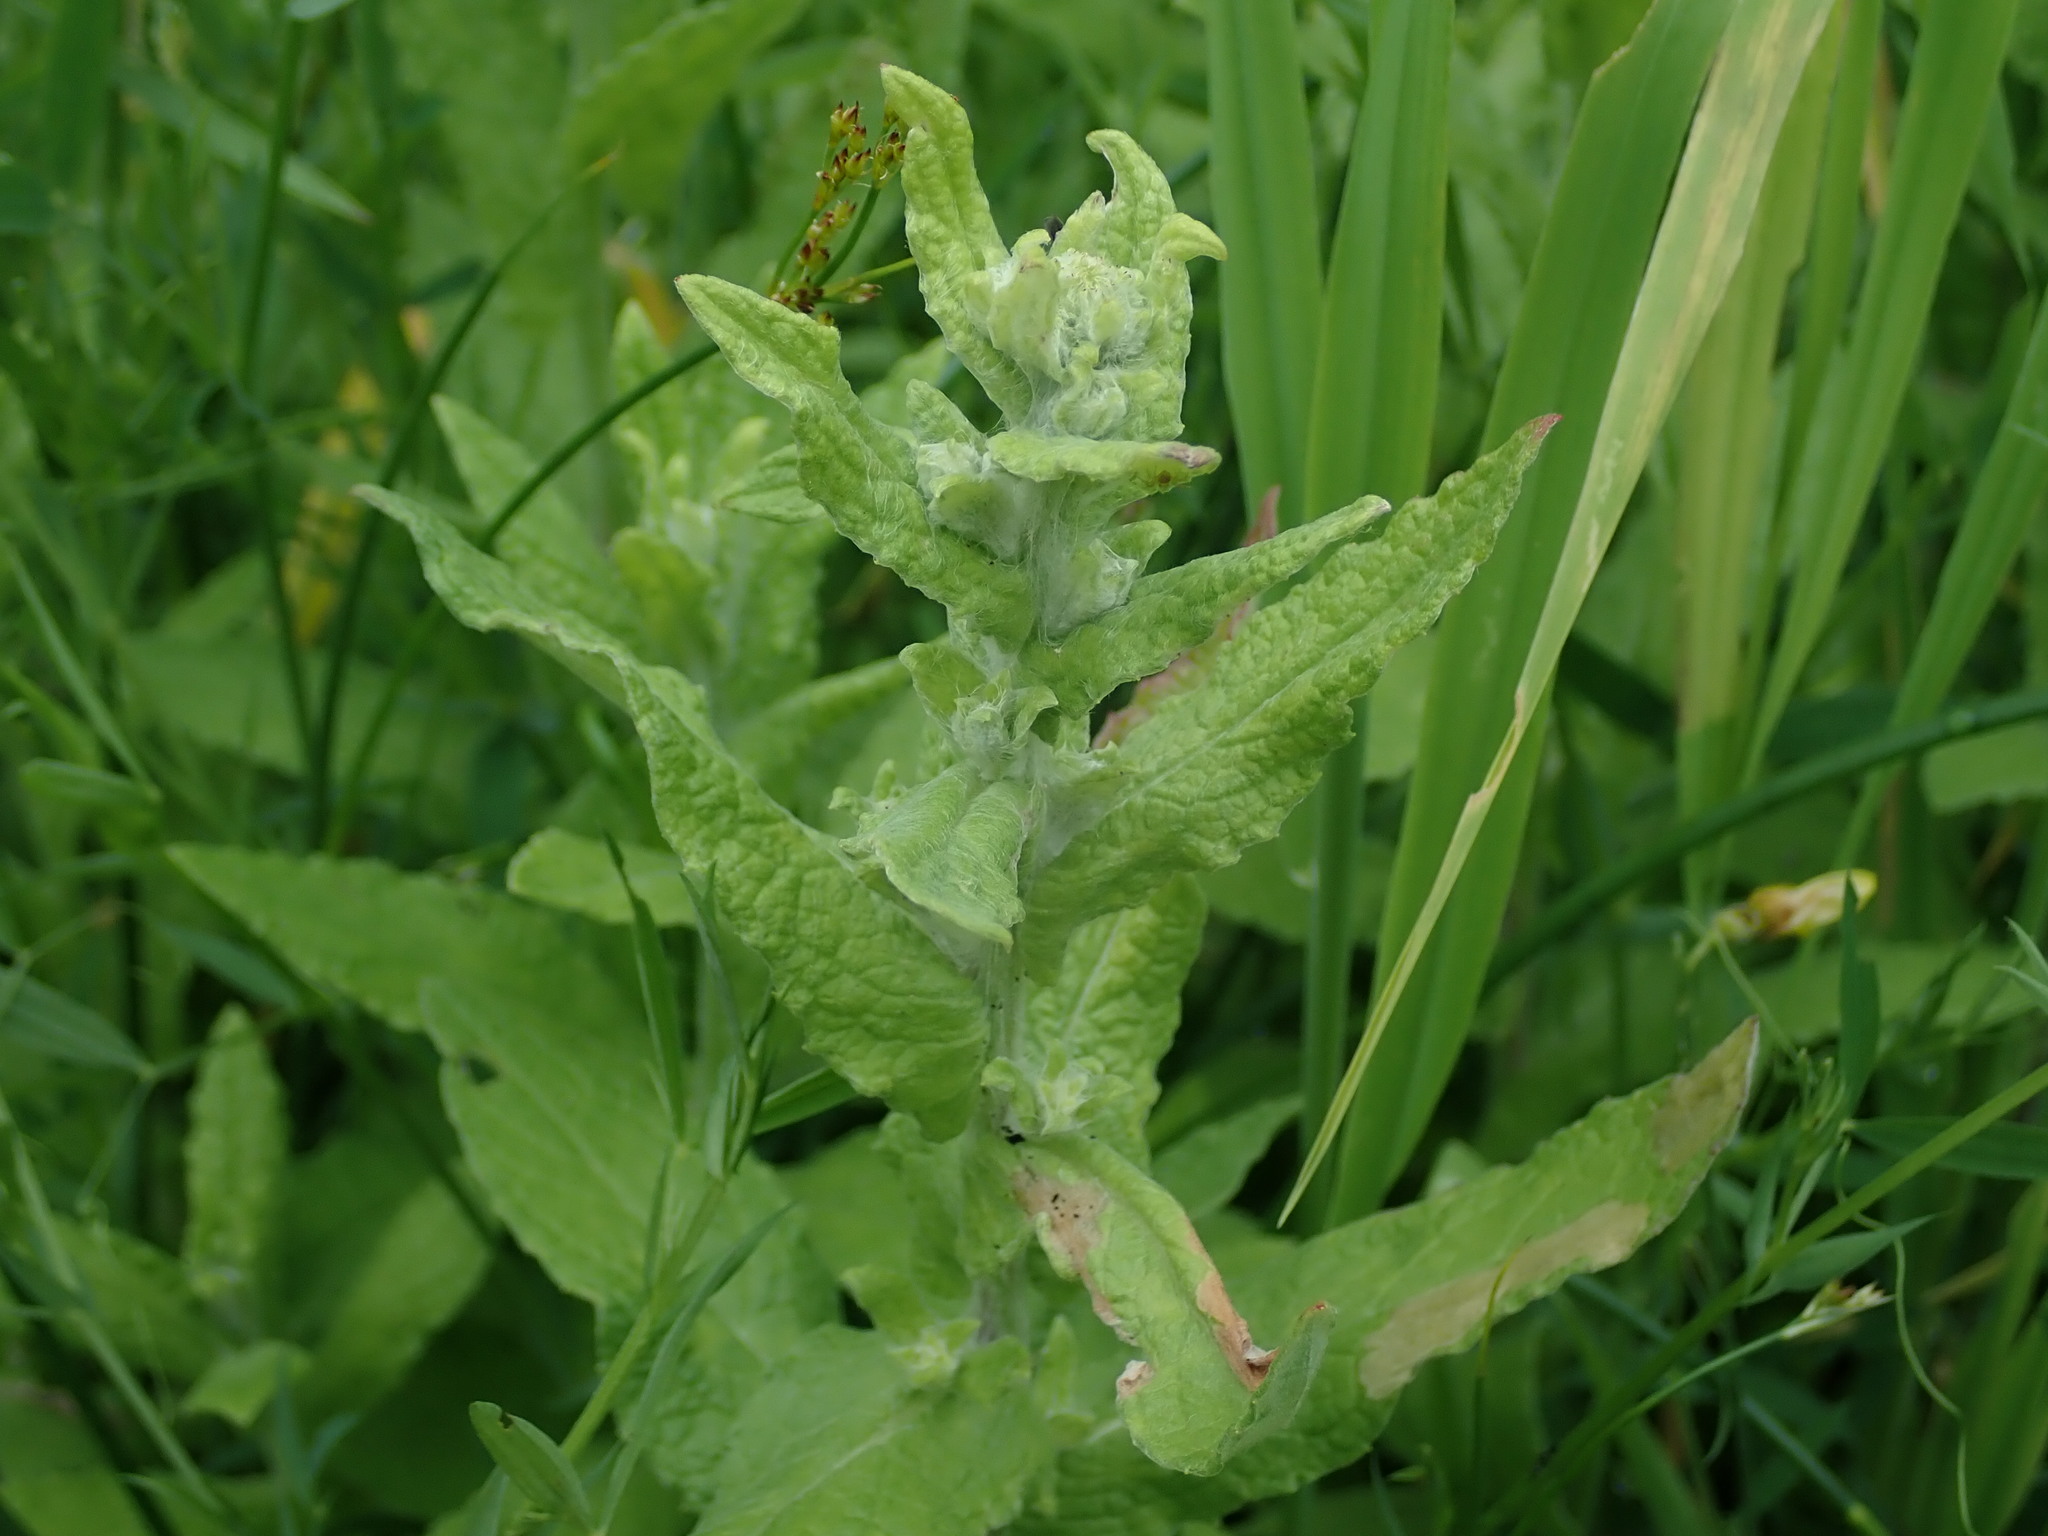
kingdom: Plantae
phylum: Tracheophyta
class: Magnoliopsida
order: Asterales
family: Asteraceae
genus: Pulicaria
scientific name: Pulicaria dysenterica
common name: Common fleabane
